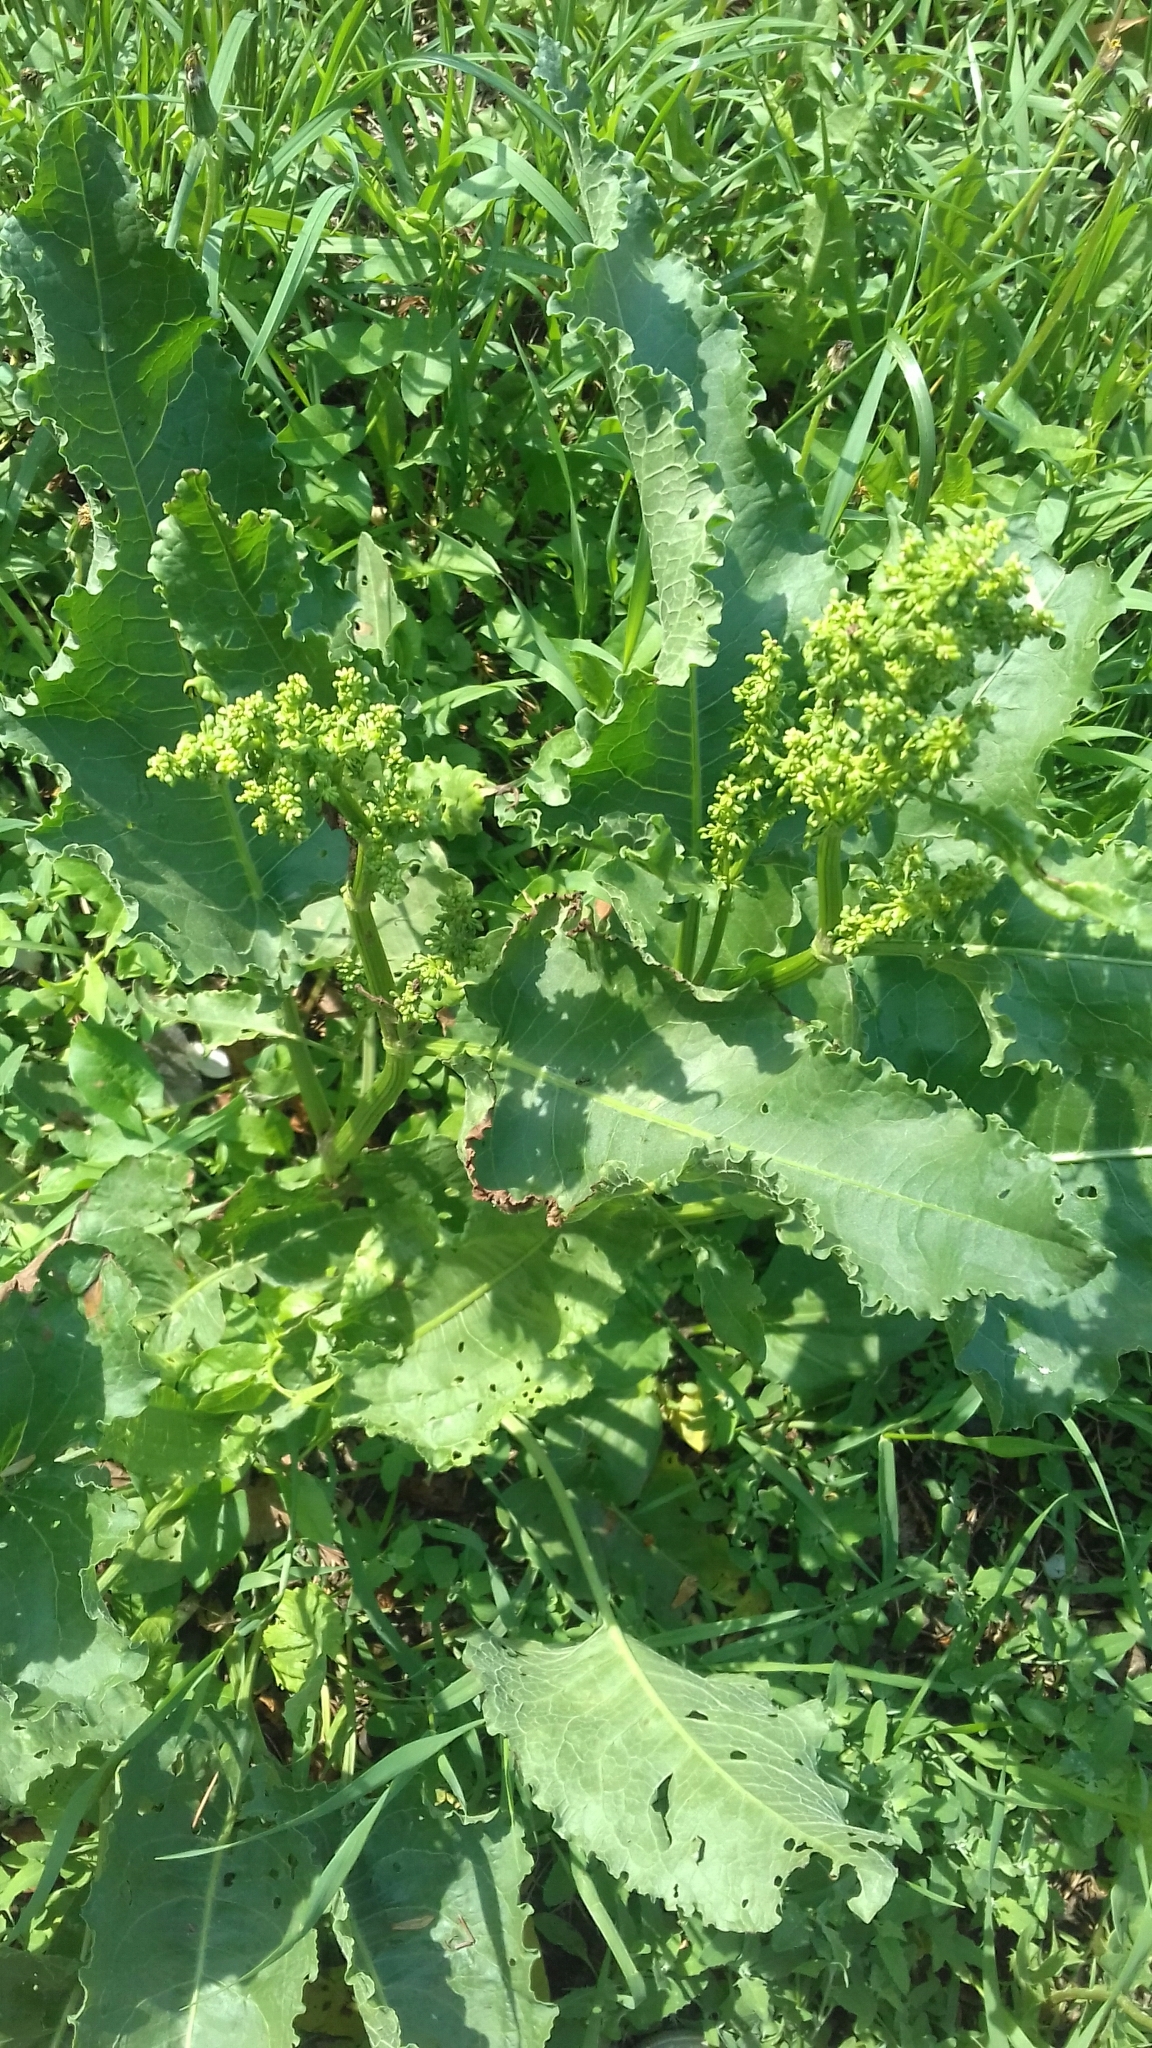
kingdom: Plantae
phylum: Tracheophyta
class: Magnoliopsida
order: Caryophyllales
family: Polygonaceae
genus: Rumex
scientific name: Rumex confertus
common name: Russian dock
